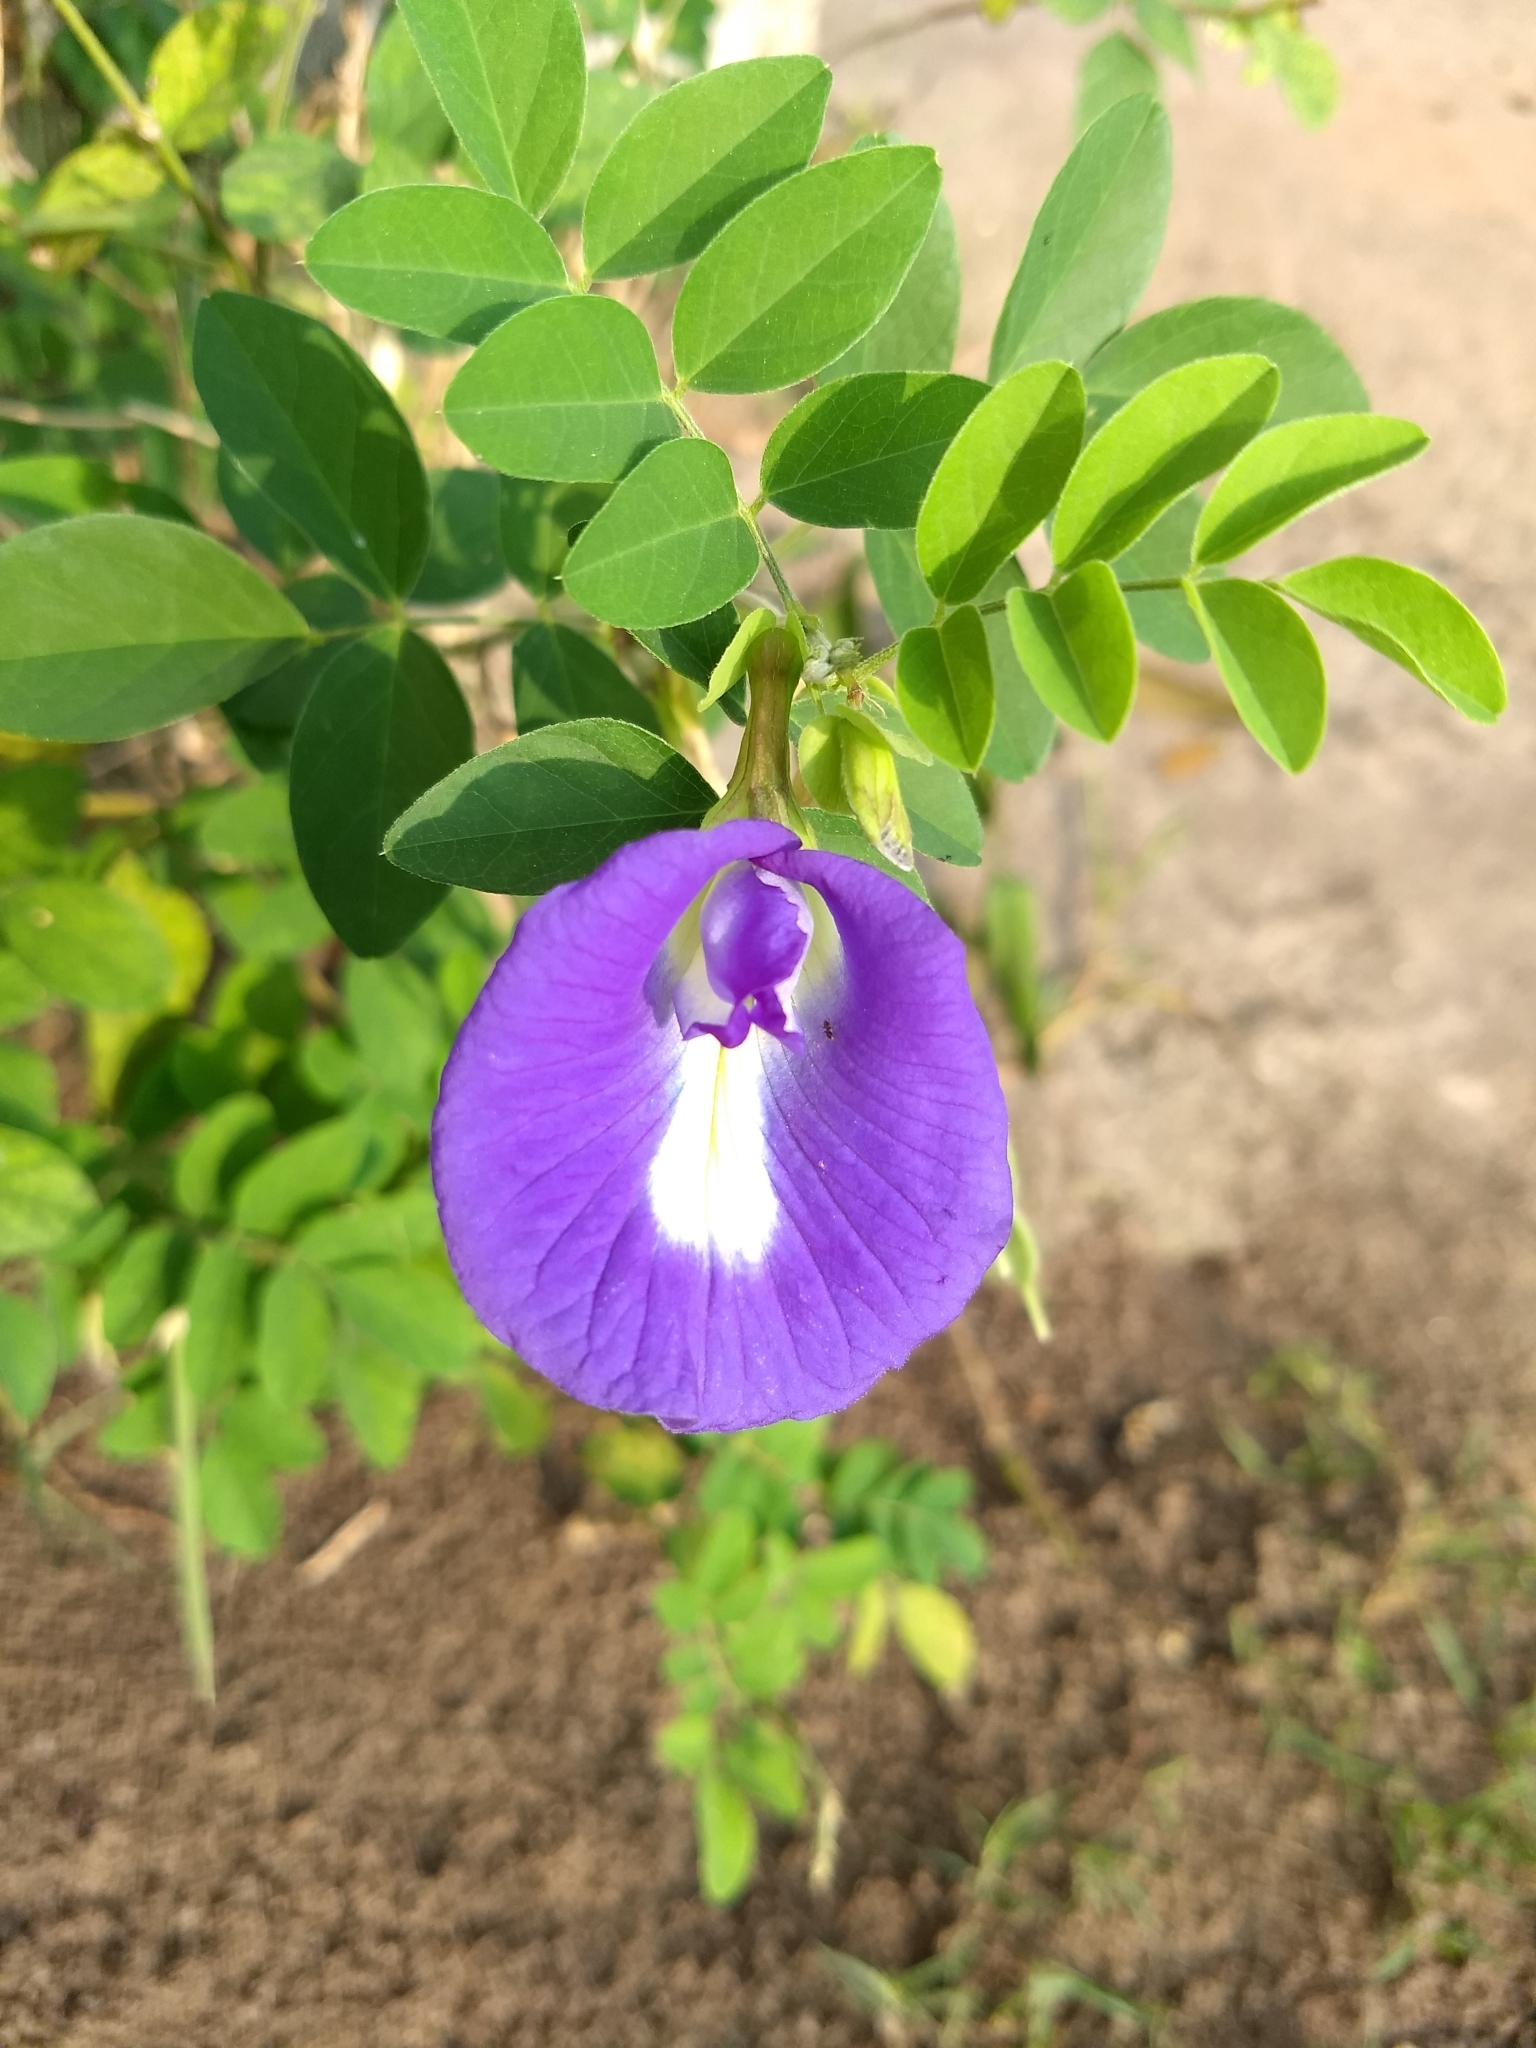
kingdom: Plantae
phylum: Tracheophyta
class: Magnoliopsida
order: Fabales
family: Fabaceae
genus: Clitoria
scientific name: Clitoria ternatea
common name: Asian pigeonwings
